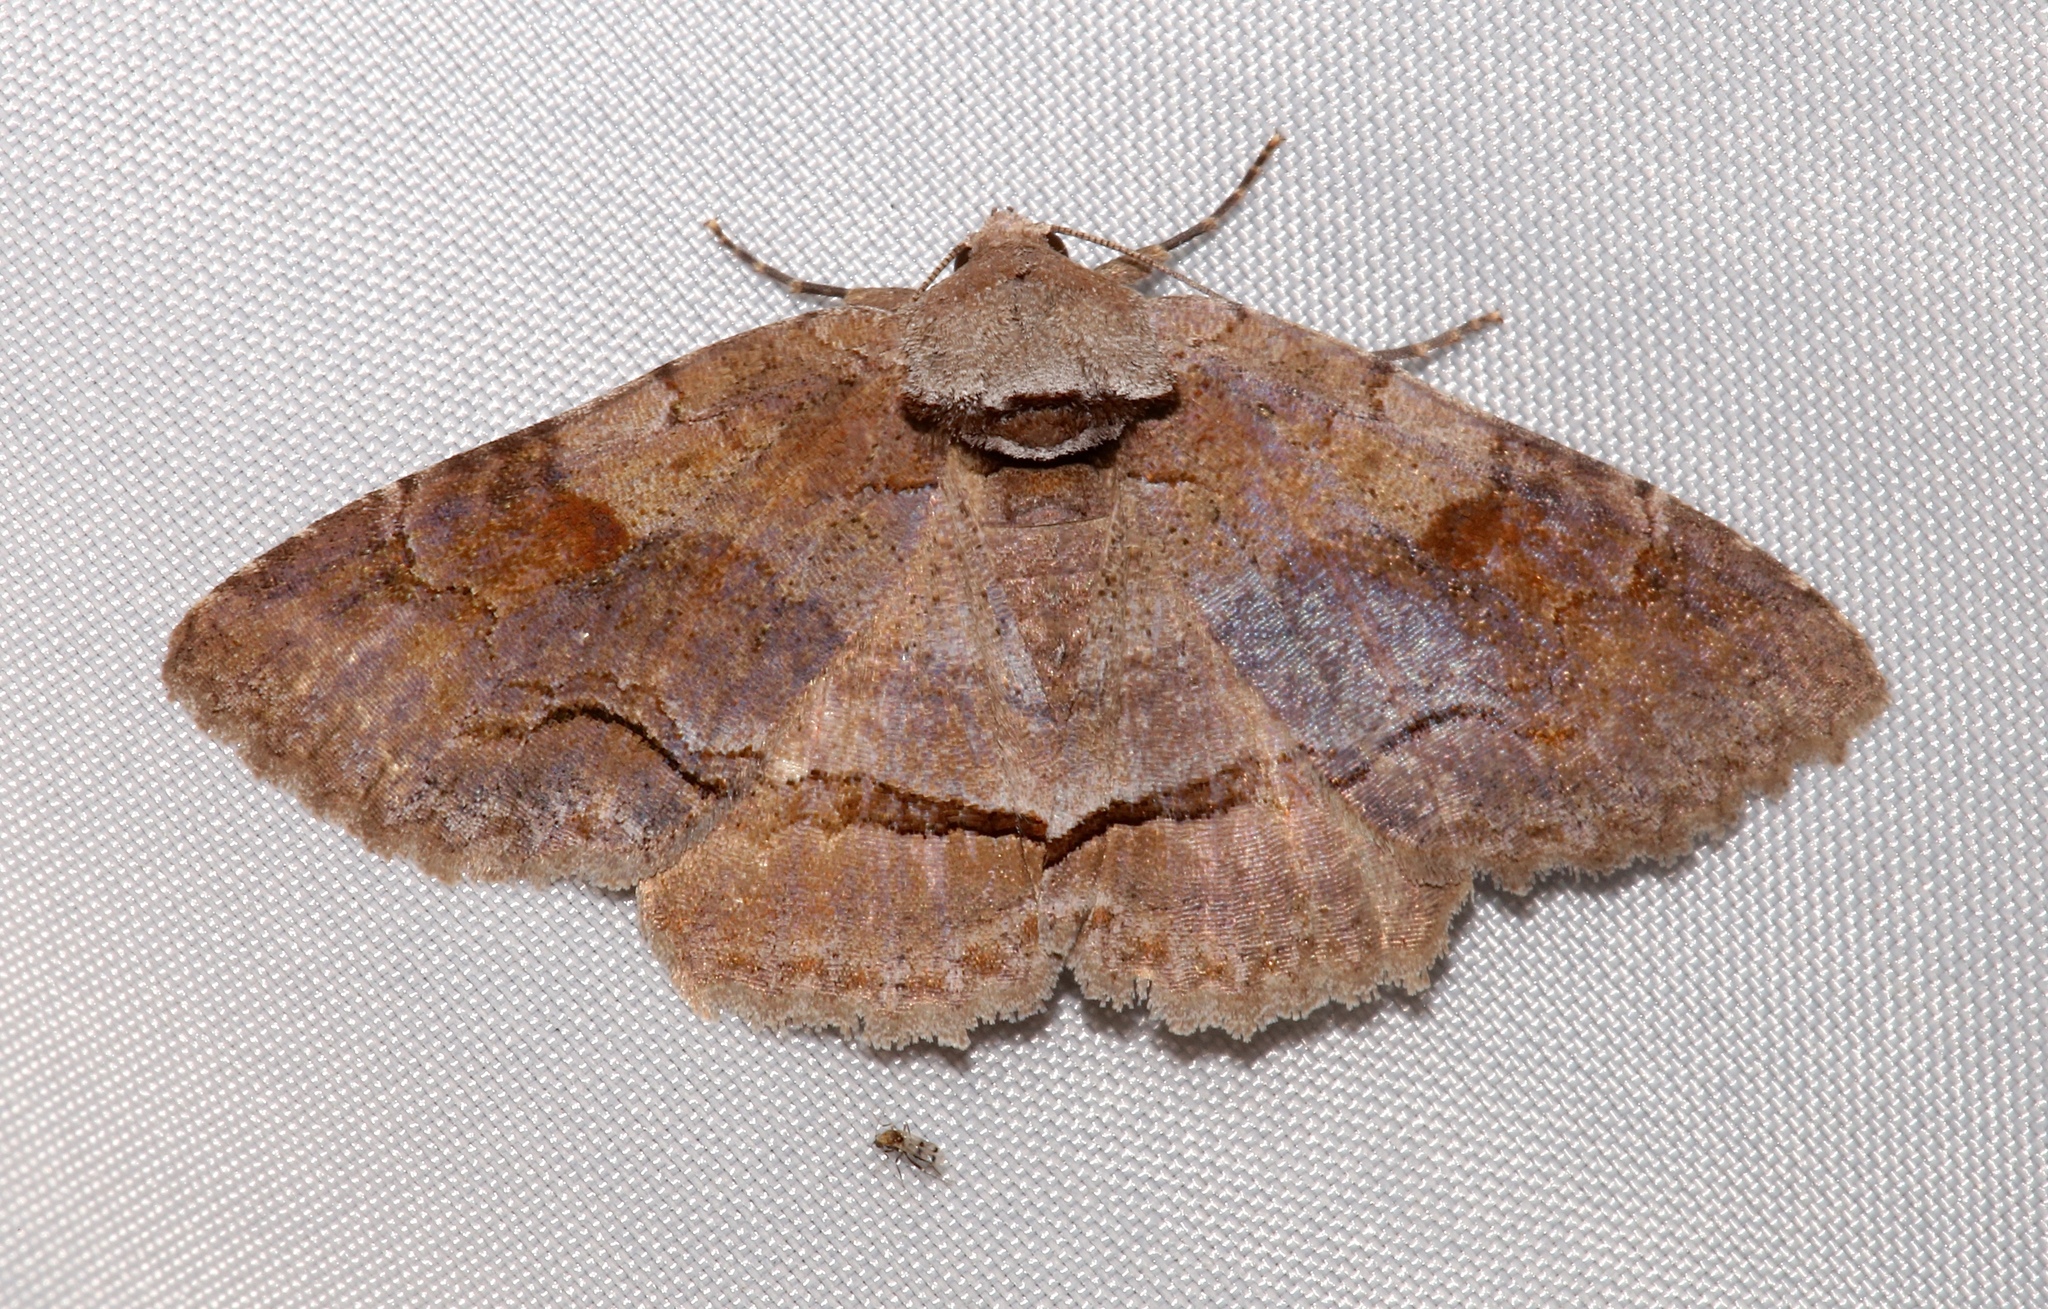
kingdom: Animalia
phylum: Arthropoda
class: Insecta
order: Lepidoptera
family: Erebidae
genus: Zale
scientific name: Zale obliqua
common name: Oblique zale moth
